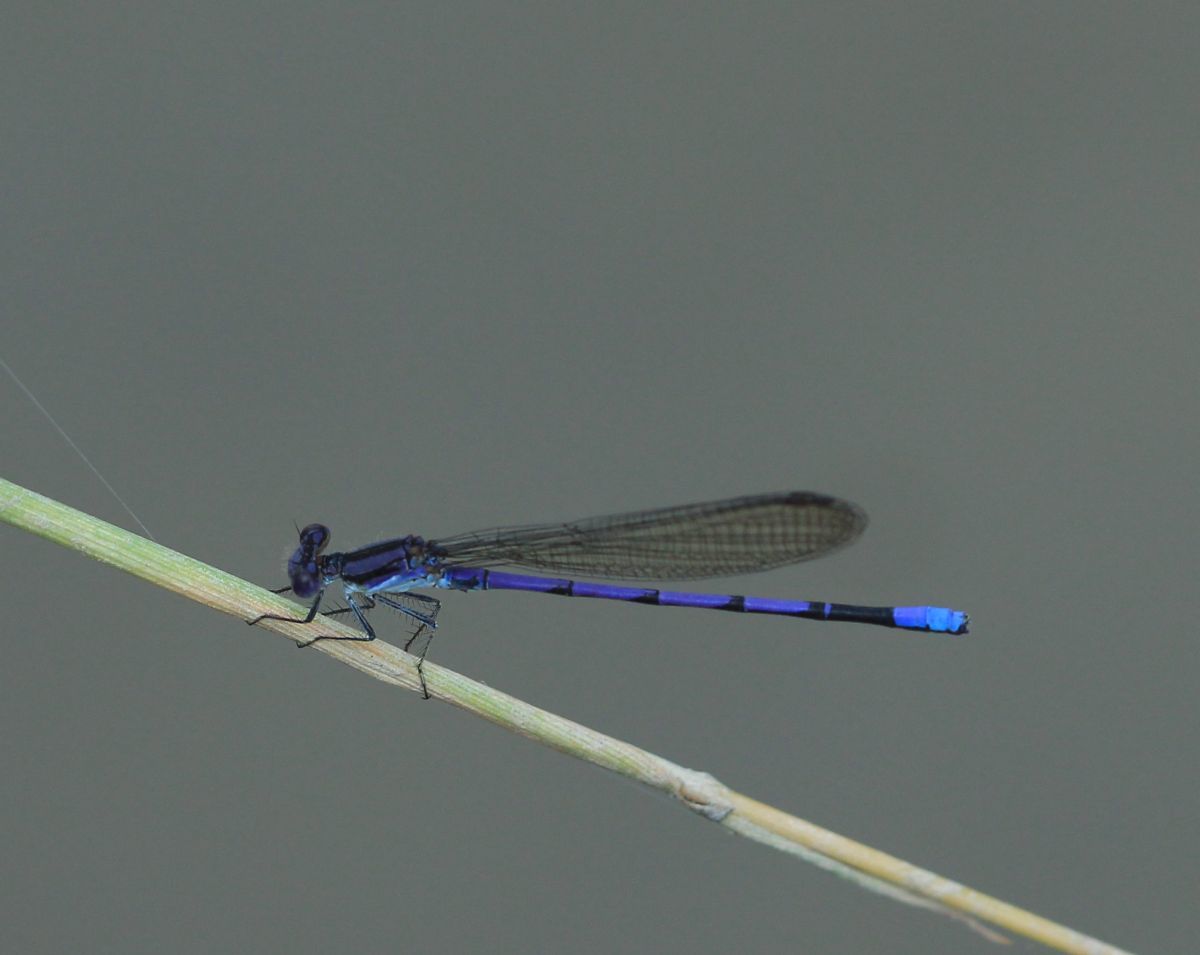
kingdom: Animalia
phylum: Arthropoda
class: Insecta
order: Odonata
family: Coenagrionidae
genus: Argia
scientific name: Argia fumipennis
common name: Variable dancer
